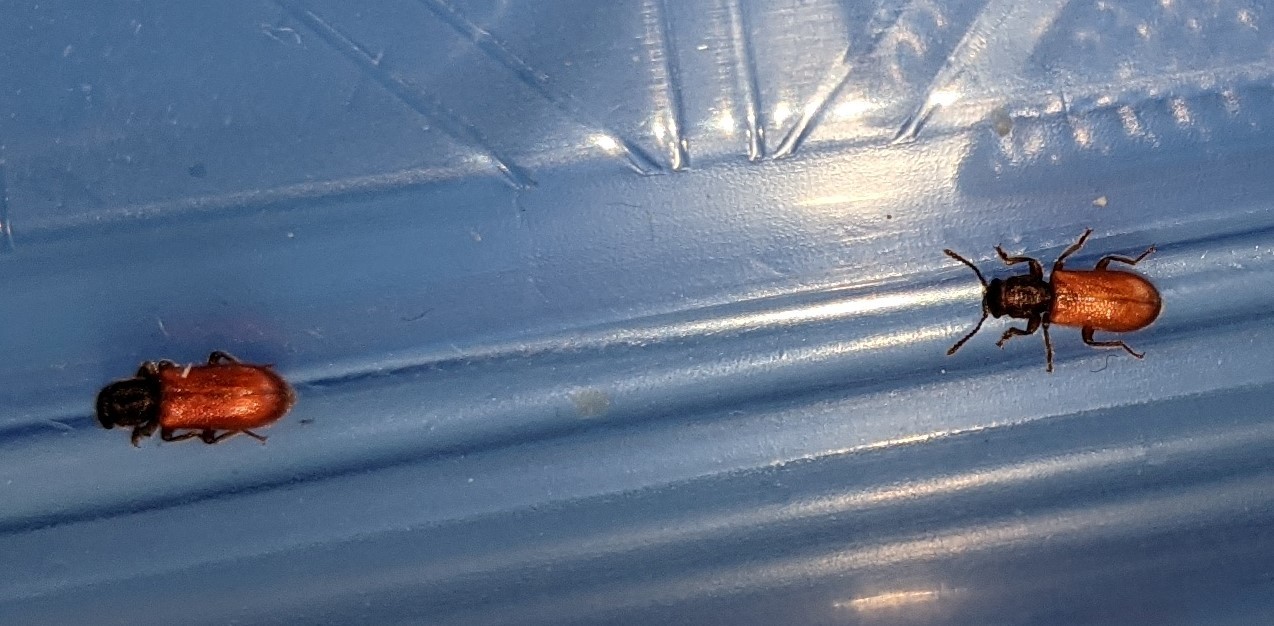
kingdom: Animalia
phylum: Arthropoda
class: Insecta
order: Coleoptera
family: Thanerocleridae
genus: Zenodosus
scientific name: Zenodosus sanguineus
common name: Blood-colored checkered beetle
